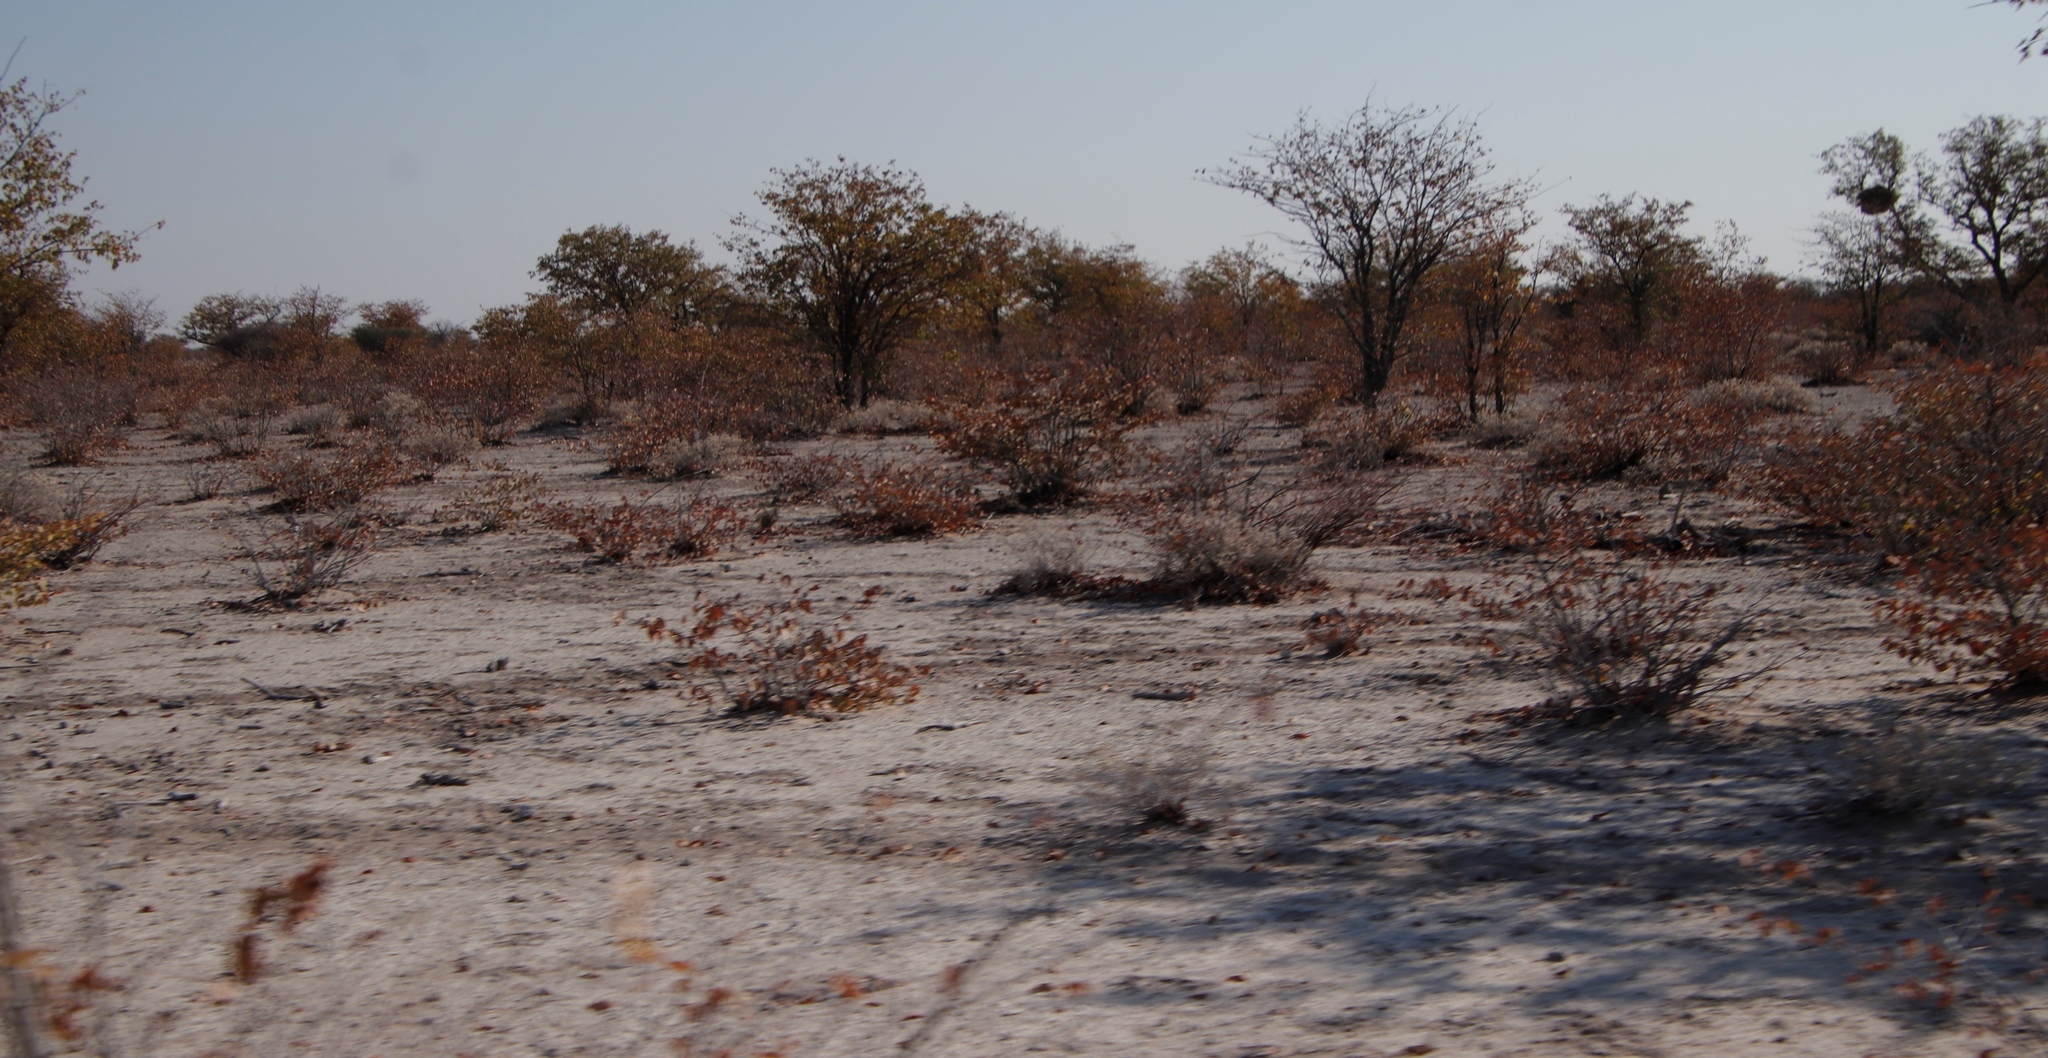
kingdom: Plantae
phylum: Tracheophyta
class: Magnoliopsida
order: Fabales
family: Fabaceae
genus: Colophospermum
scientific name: Colophospermum mopane
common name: Mopane
